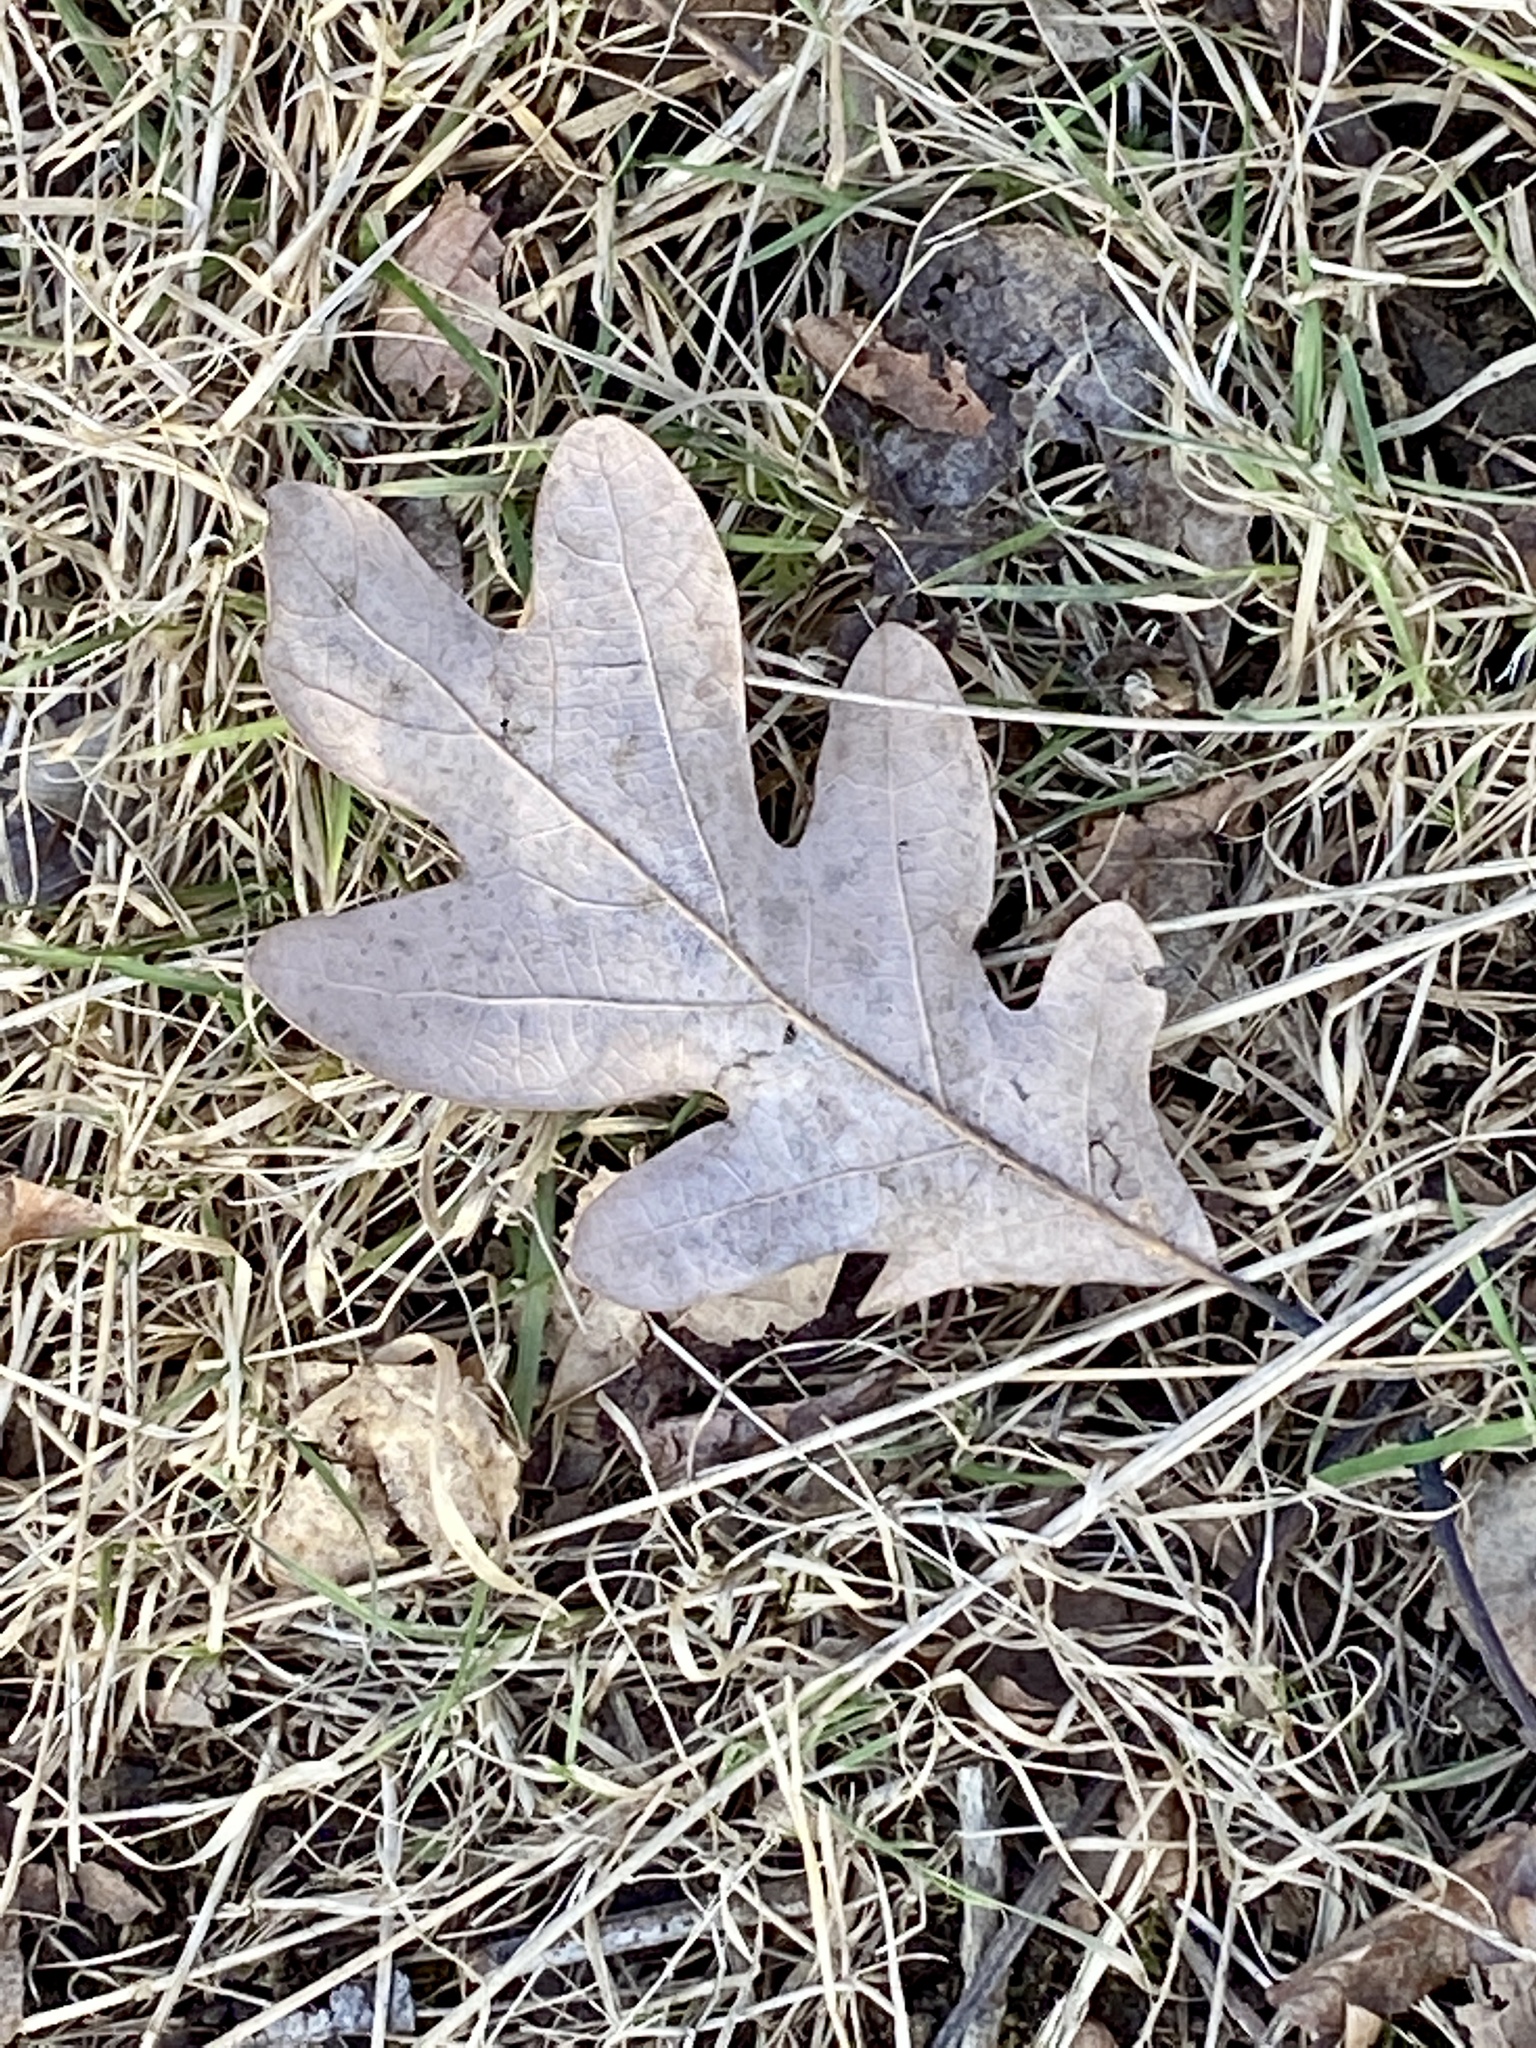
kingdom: Plantae
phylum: Tracheophyta
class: Magnoliopsida
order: Fagales
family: Fagaceae
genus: Quercus
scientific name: Quercus alba
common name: White oak
